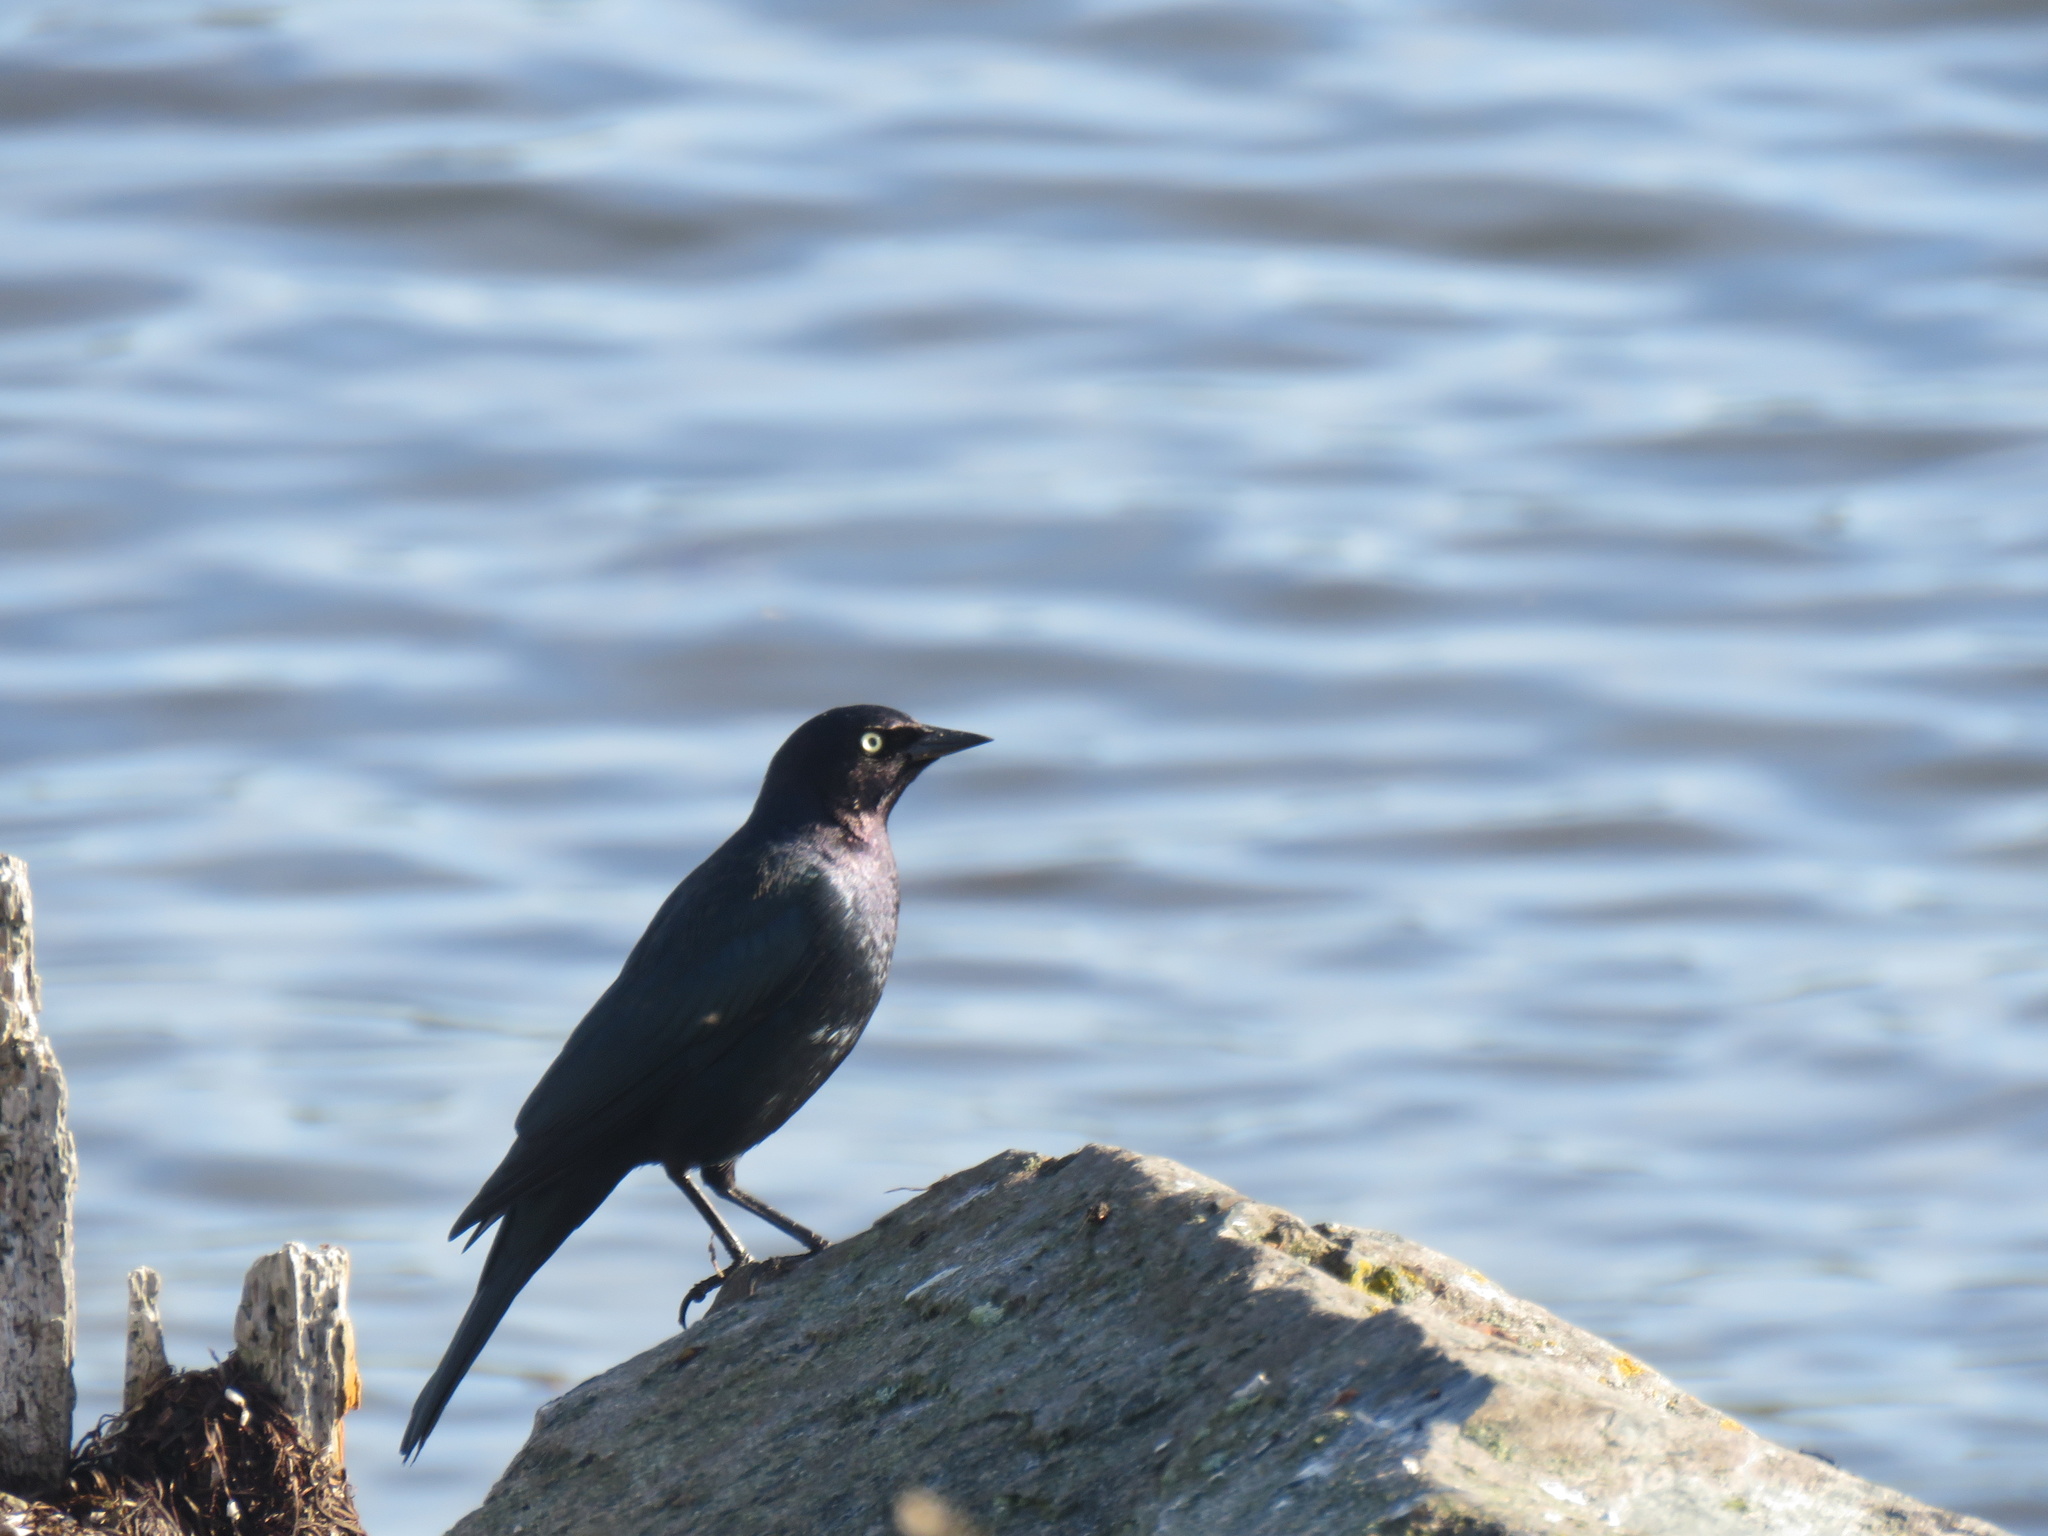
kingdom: Animalia
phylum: Chordata
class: Aves
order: Passeriformes
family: Icteridae
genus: Euphagus
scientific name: Euphagus cyanocephalus
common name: Brewer's blackbird
